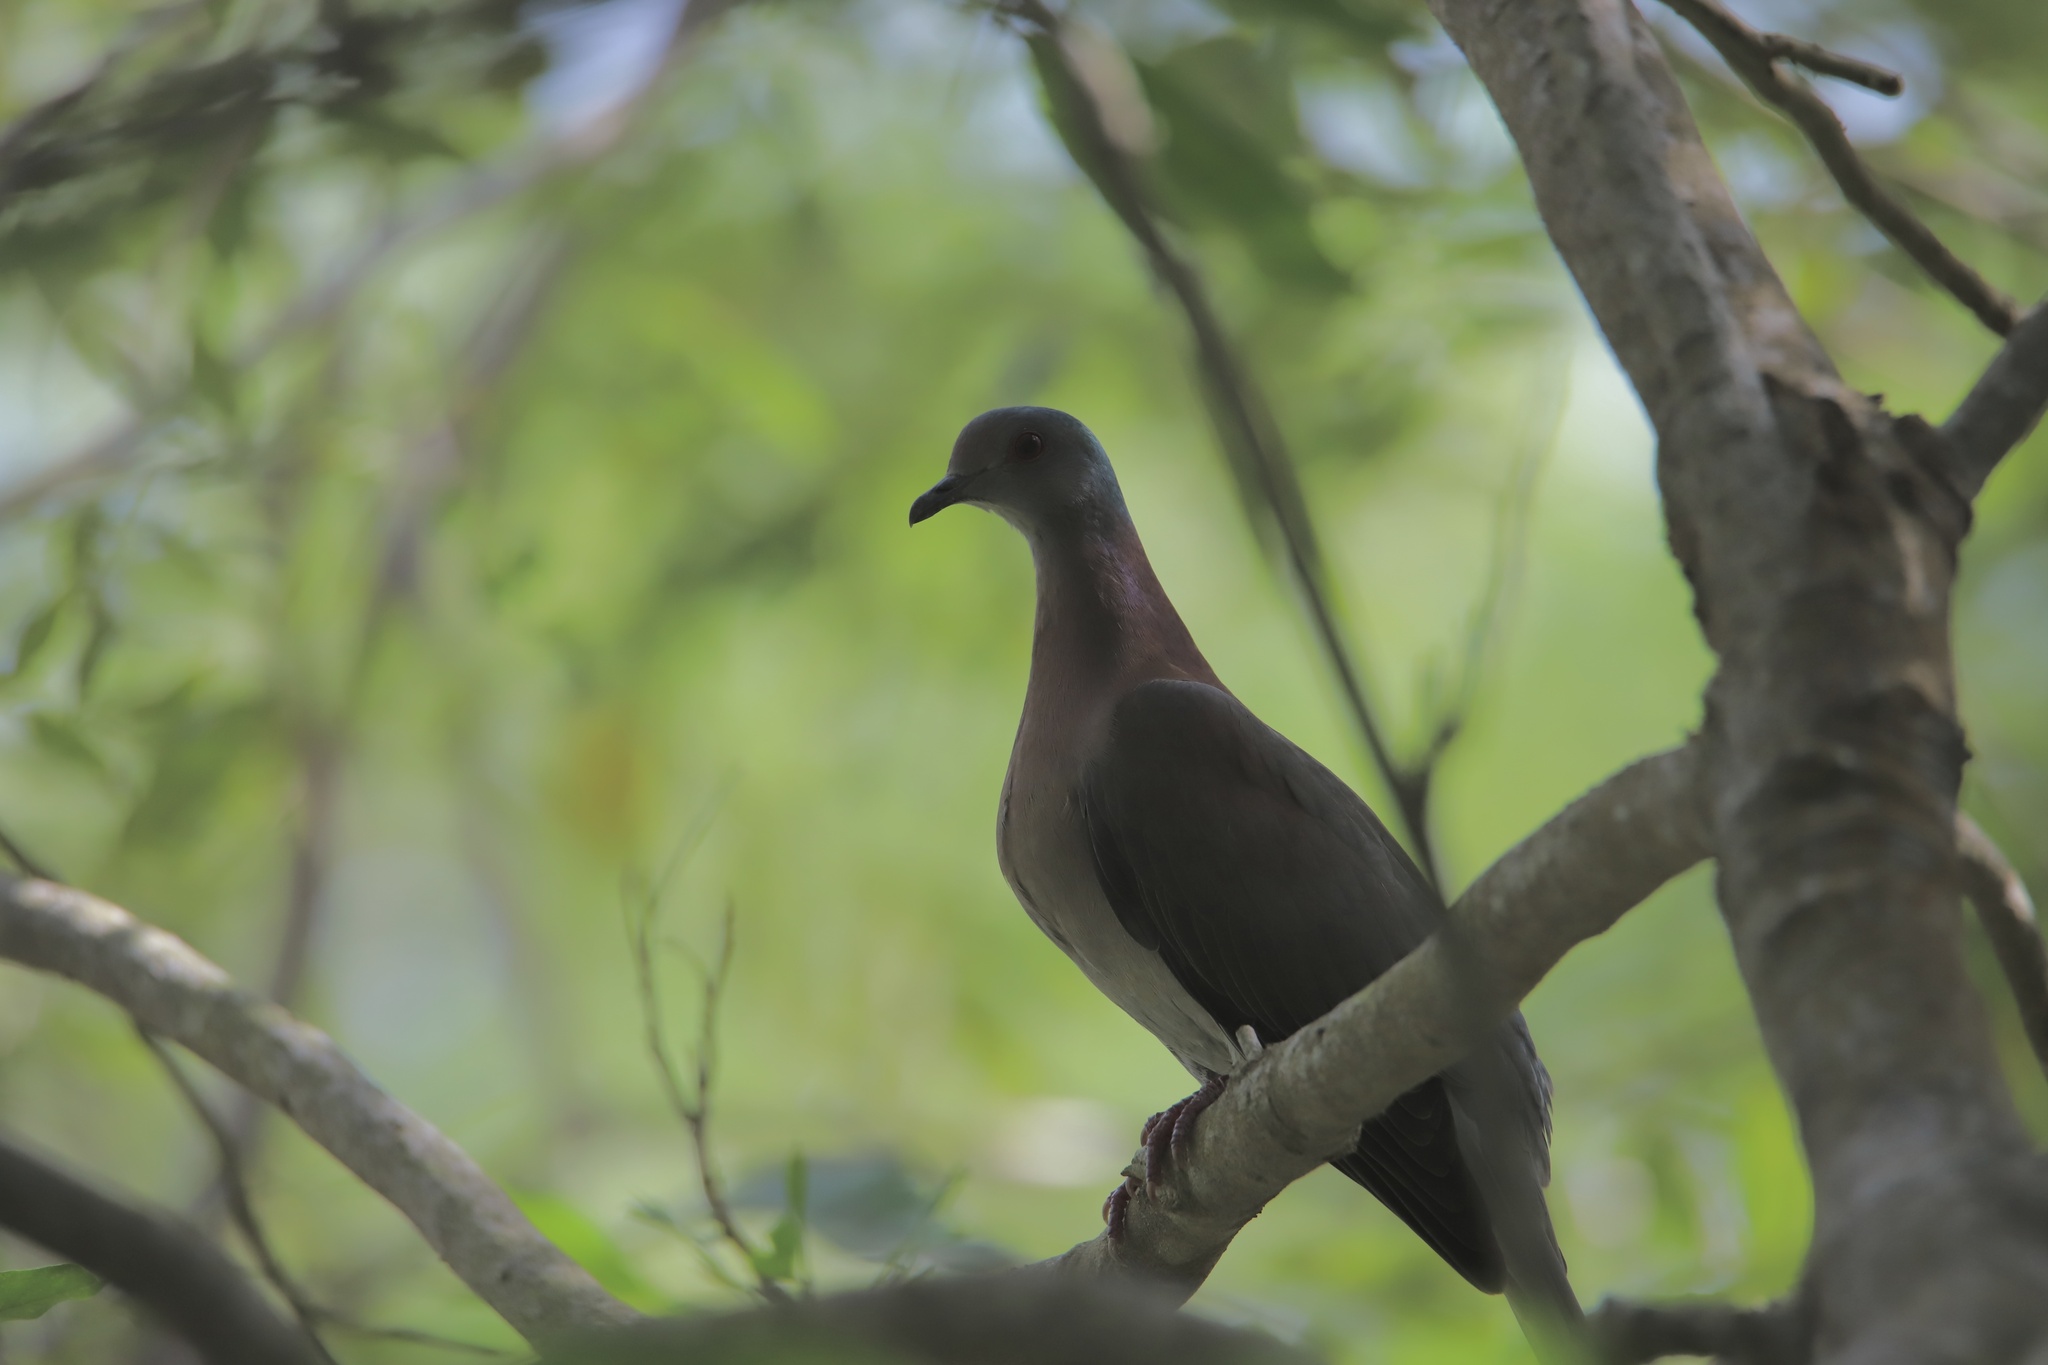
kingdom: Animalia
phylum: Chordata
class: Aves
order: Columbiformes
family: Columbidae
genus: Patagioenas
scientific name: Patagioenas cayennensis
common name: Pale-vented pigeon
